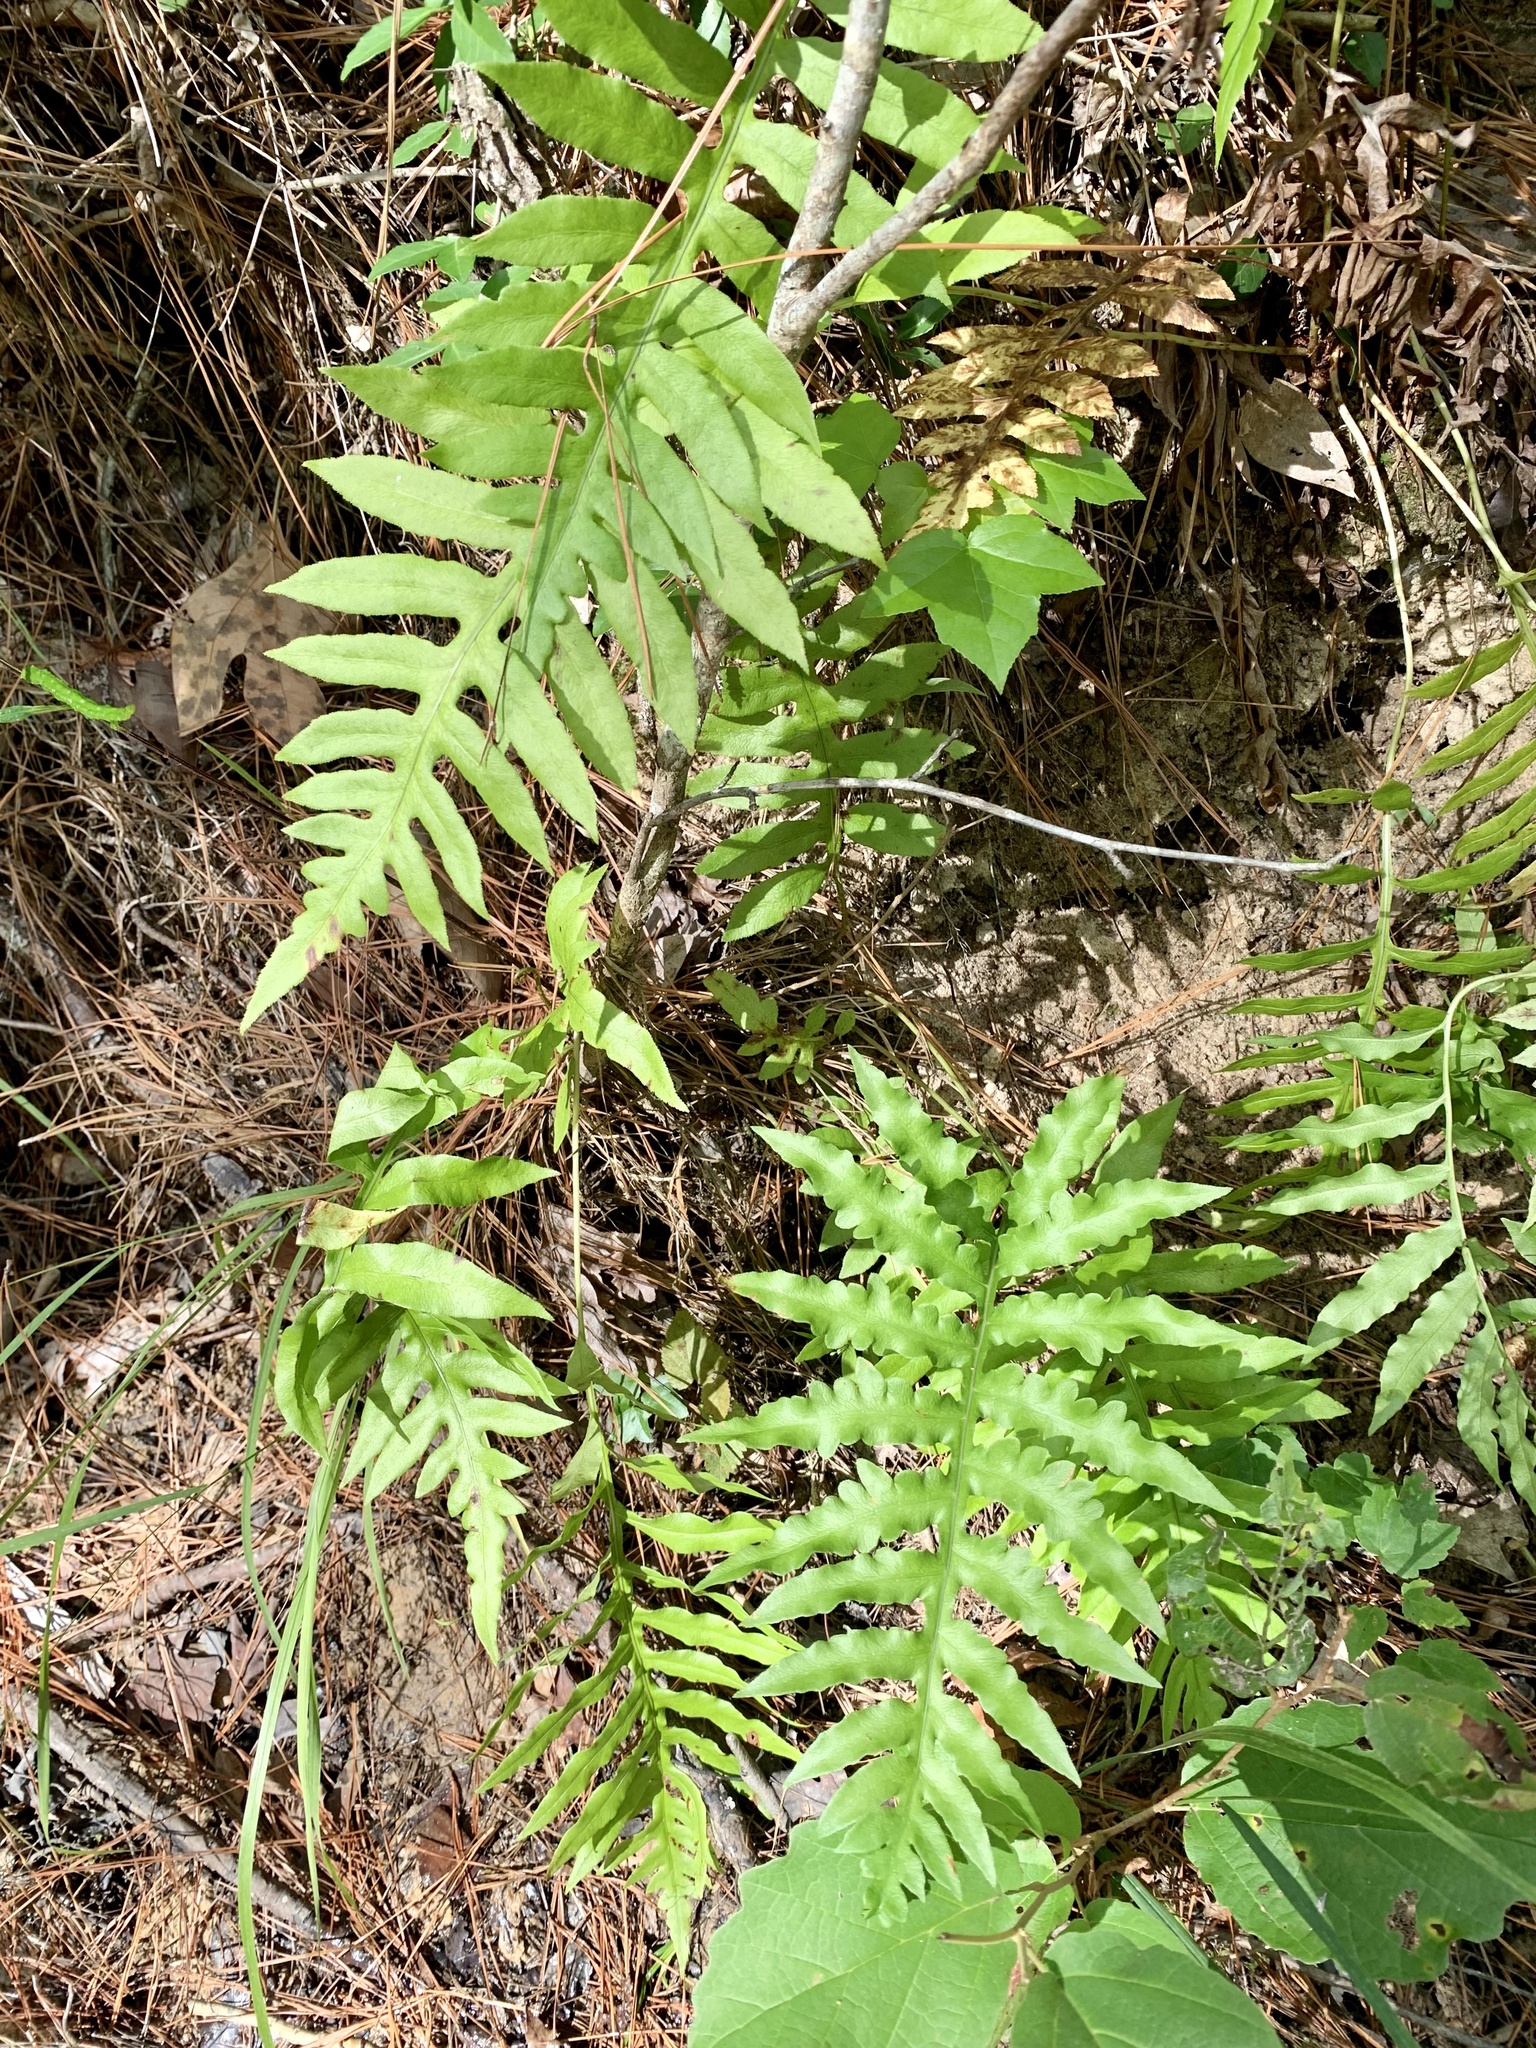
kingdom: Plantae
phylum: Tracheophyta
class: Polypodiopsida
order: Polypodiales
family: Blechnaceae
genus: Lorinseria
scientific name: Lorinseria areolata
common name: Dwarf chain fern
